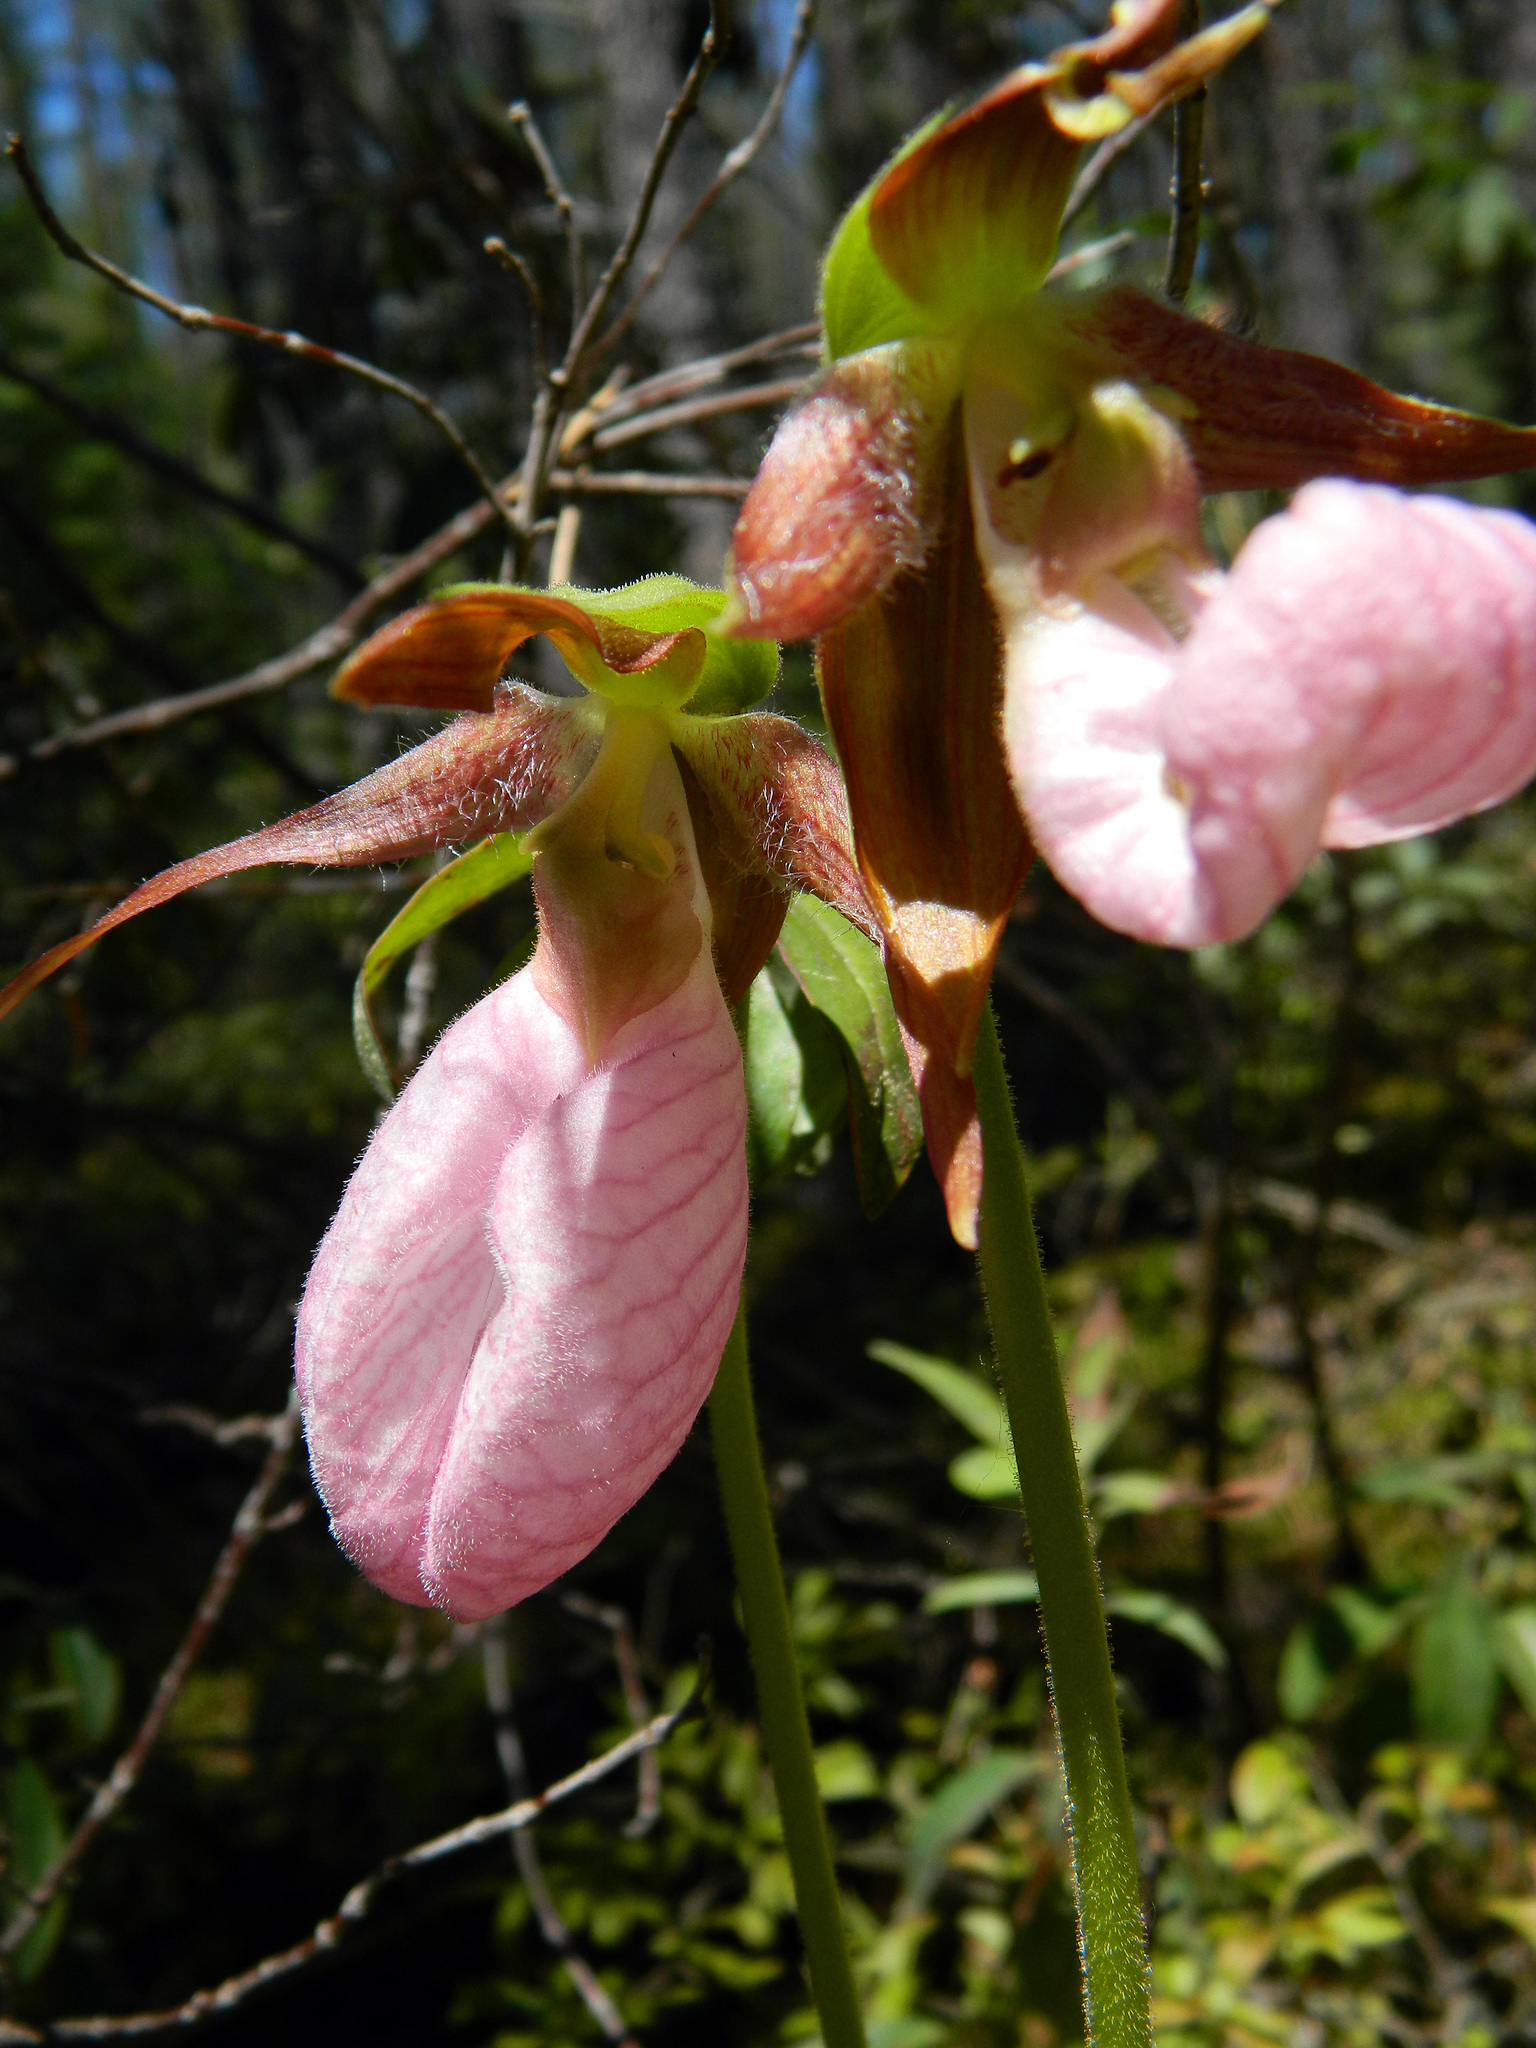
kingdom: Plantae
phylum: Tracheophyta
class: Liliopsida
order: Asparagales
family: Orchidaceae
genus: Cypripedium
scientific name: Cypripedium acaule
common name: Pink lady's-slipper
